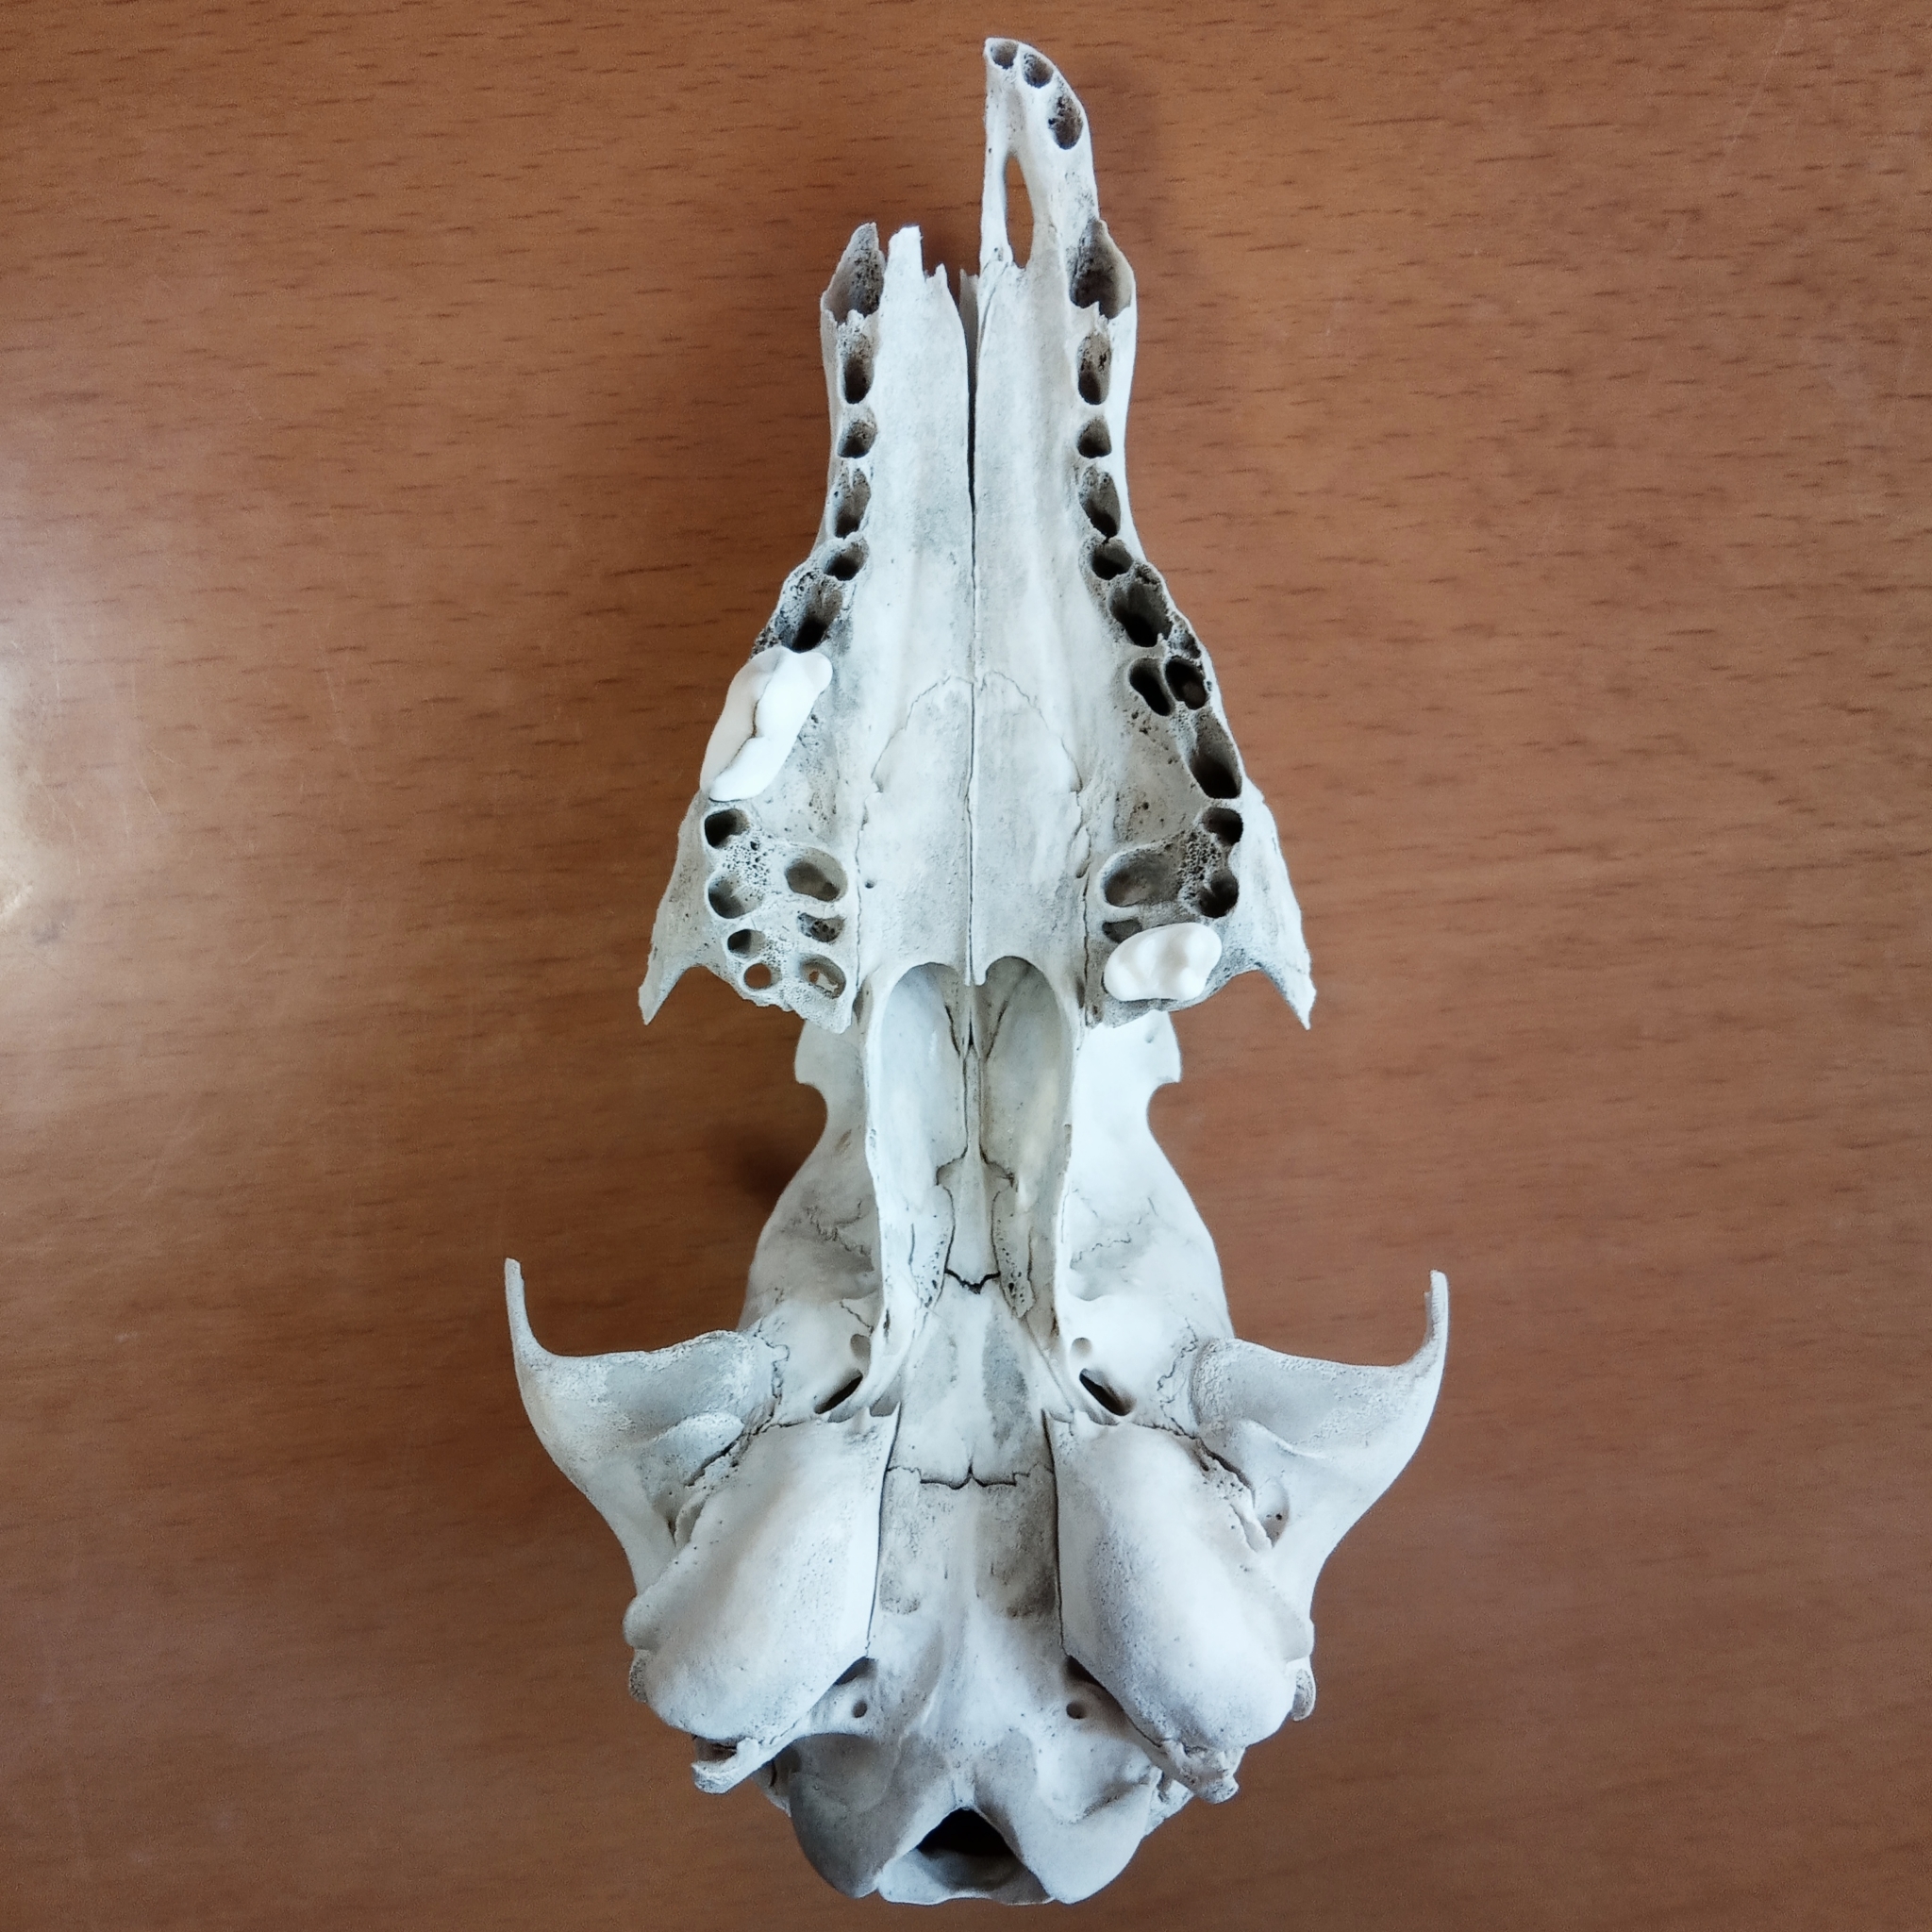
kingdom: Animalia
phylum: Chordata
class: Mammalia
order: Carnivora
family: Canidae
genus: Vulpes
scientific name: Vulpes vulpes
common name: Red fox
